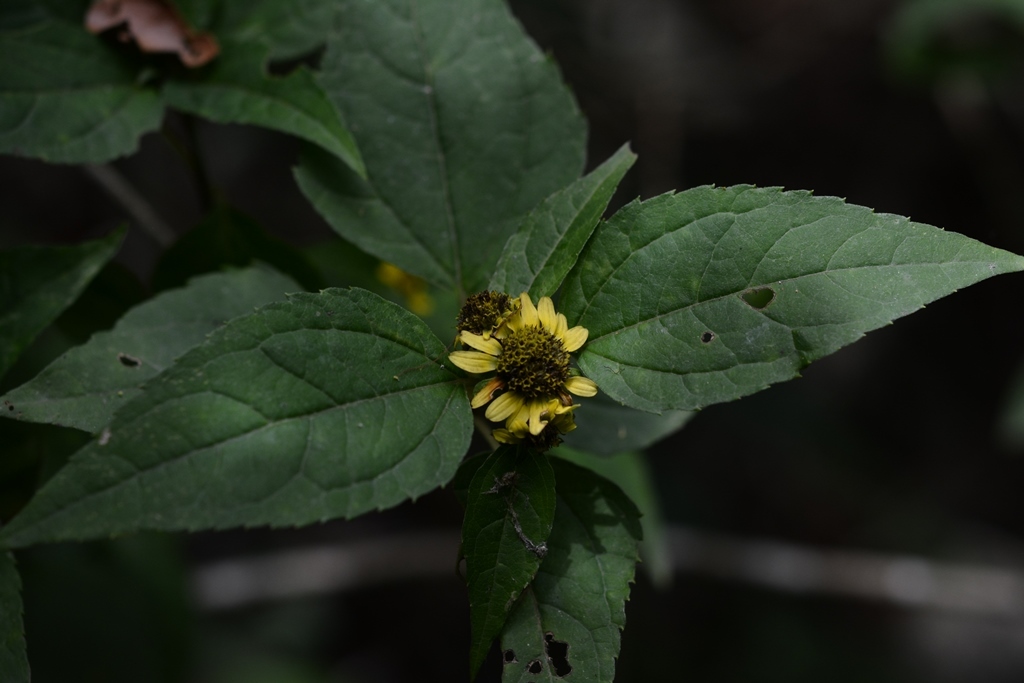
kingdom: Plantae
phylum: Tracheophyta
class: Magnoliopsida
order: Asterales
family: Asteraceae
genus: Philactis
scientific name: Philactis zinnioides
